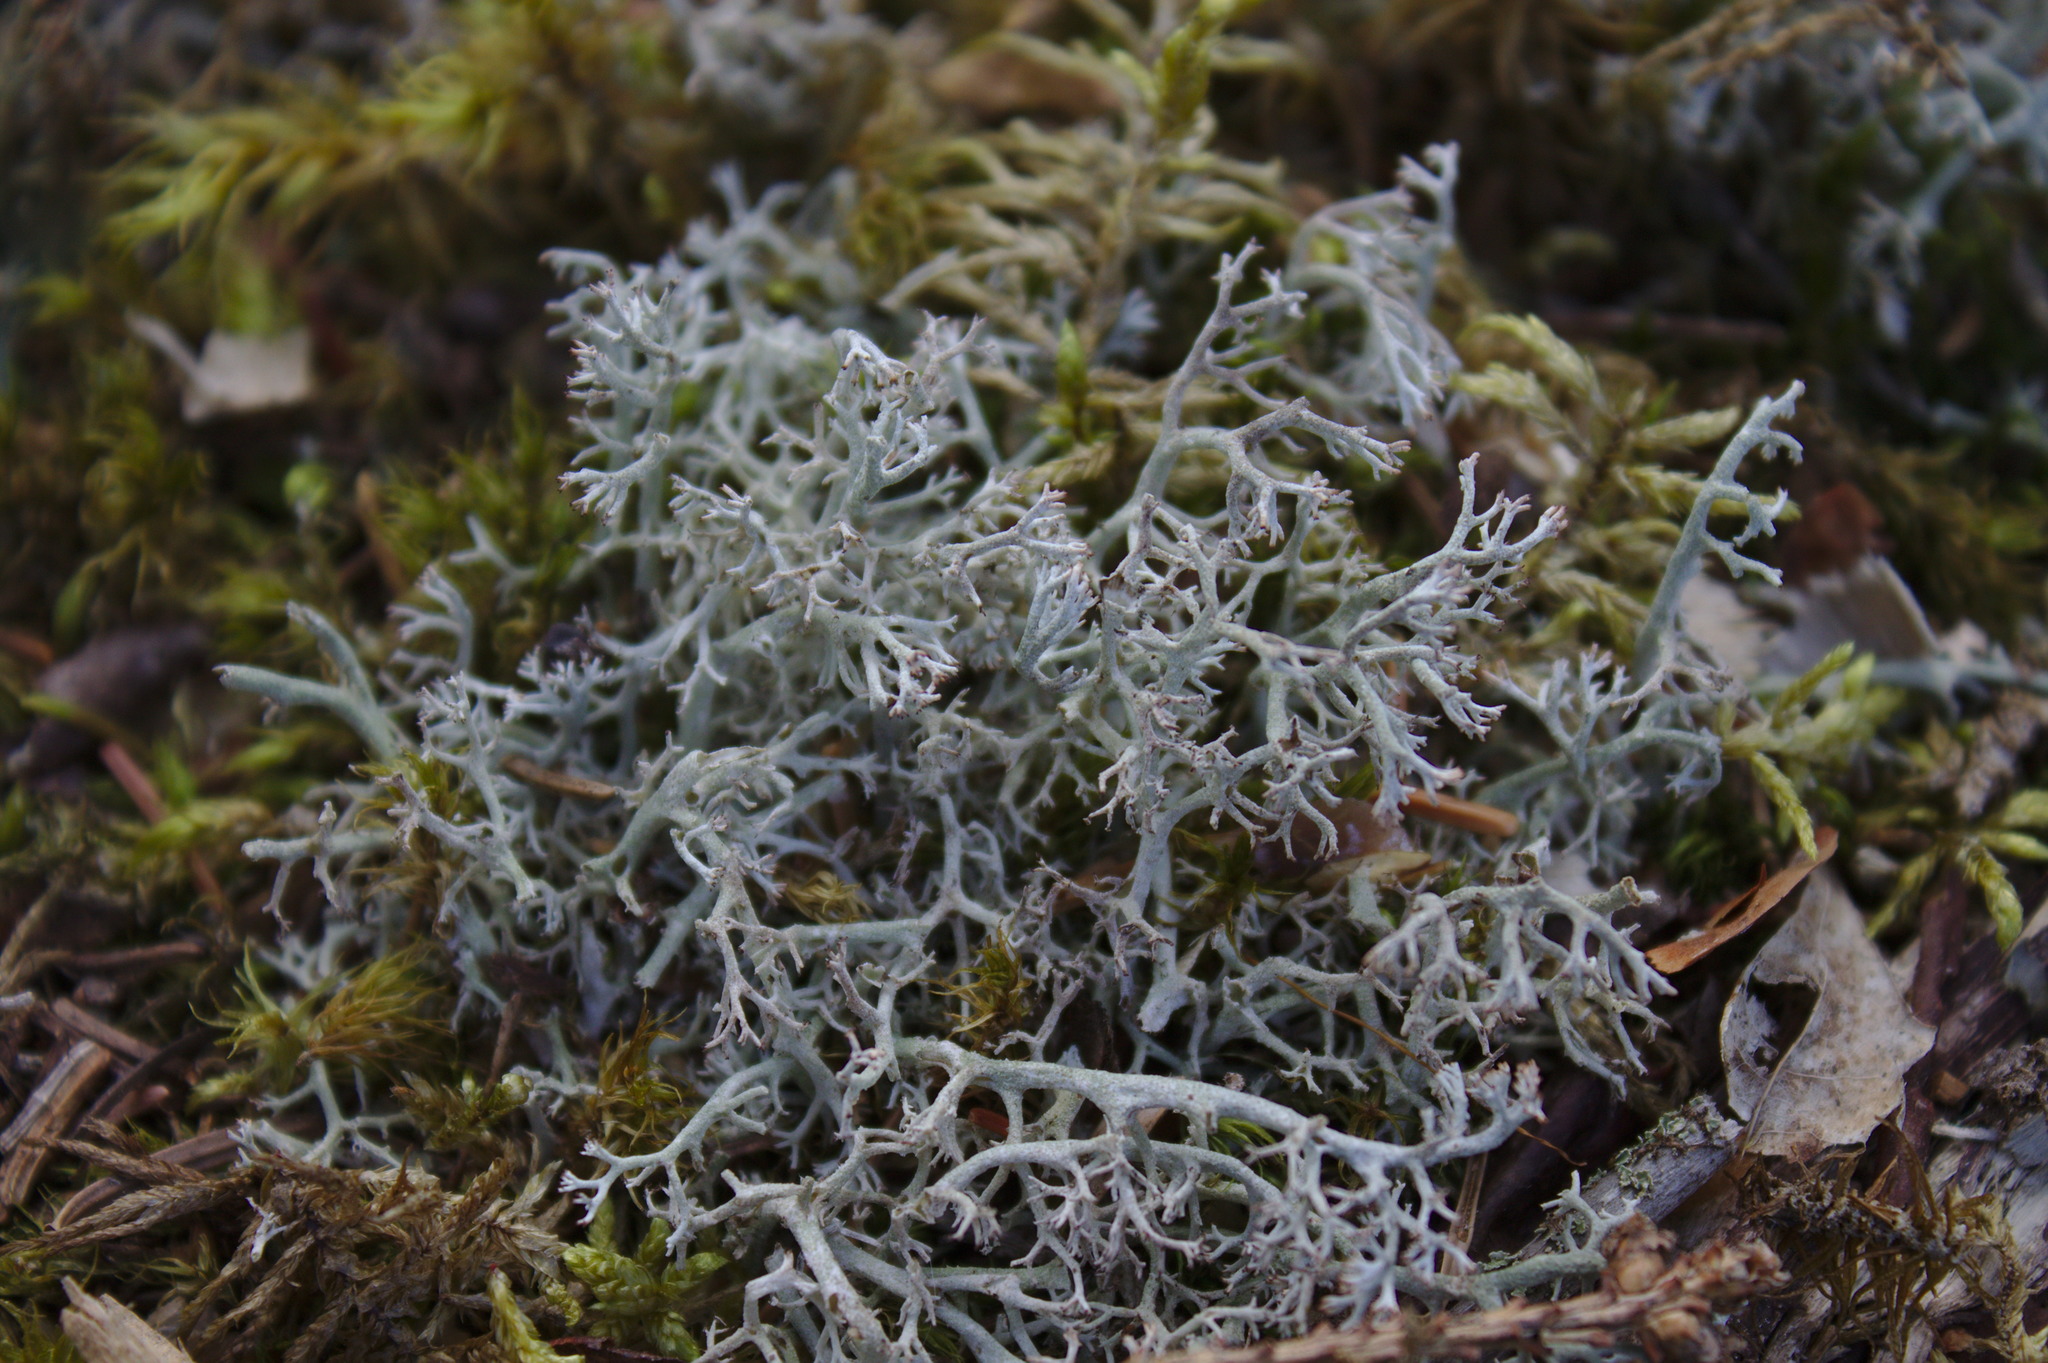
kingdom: Fungi
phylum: Ascomycota
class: Lecanoromycetes
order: Lecanorales
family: Cladoniaceae
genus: Cladonia
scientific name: Cladonia rangiferina
